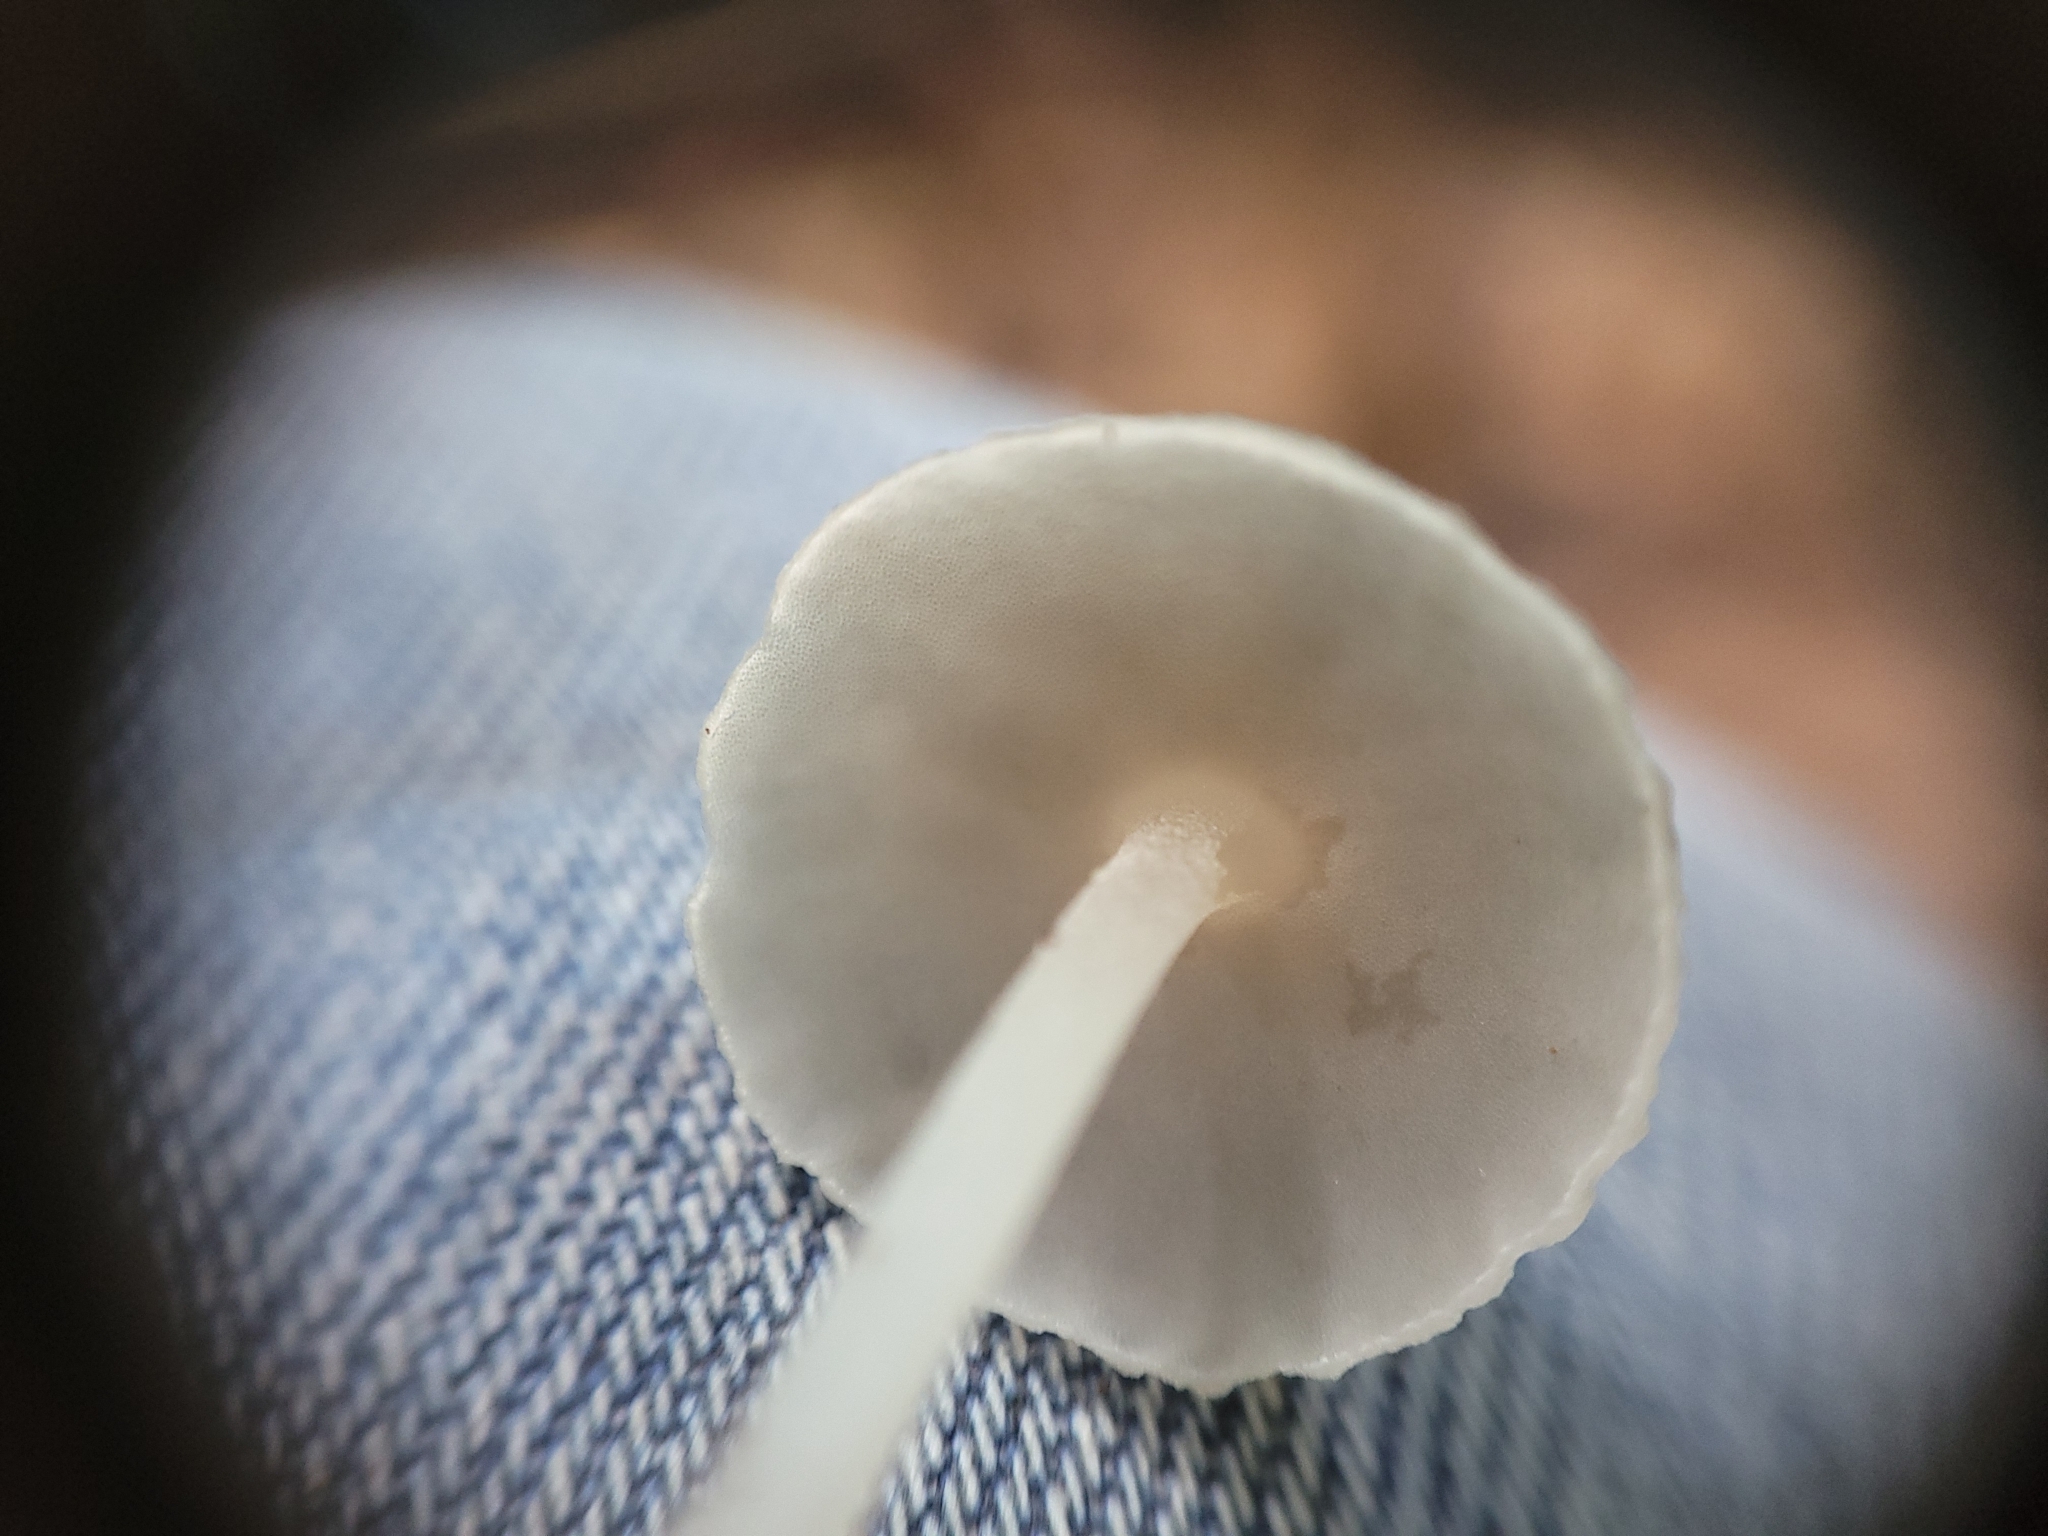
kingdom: Fungi
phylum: Basidiomycota
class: Agaricomycetes
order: Agaricales
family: Mycenaceae
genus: Filoboletus
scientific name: Filoboletus gracilis
